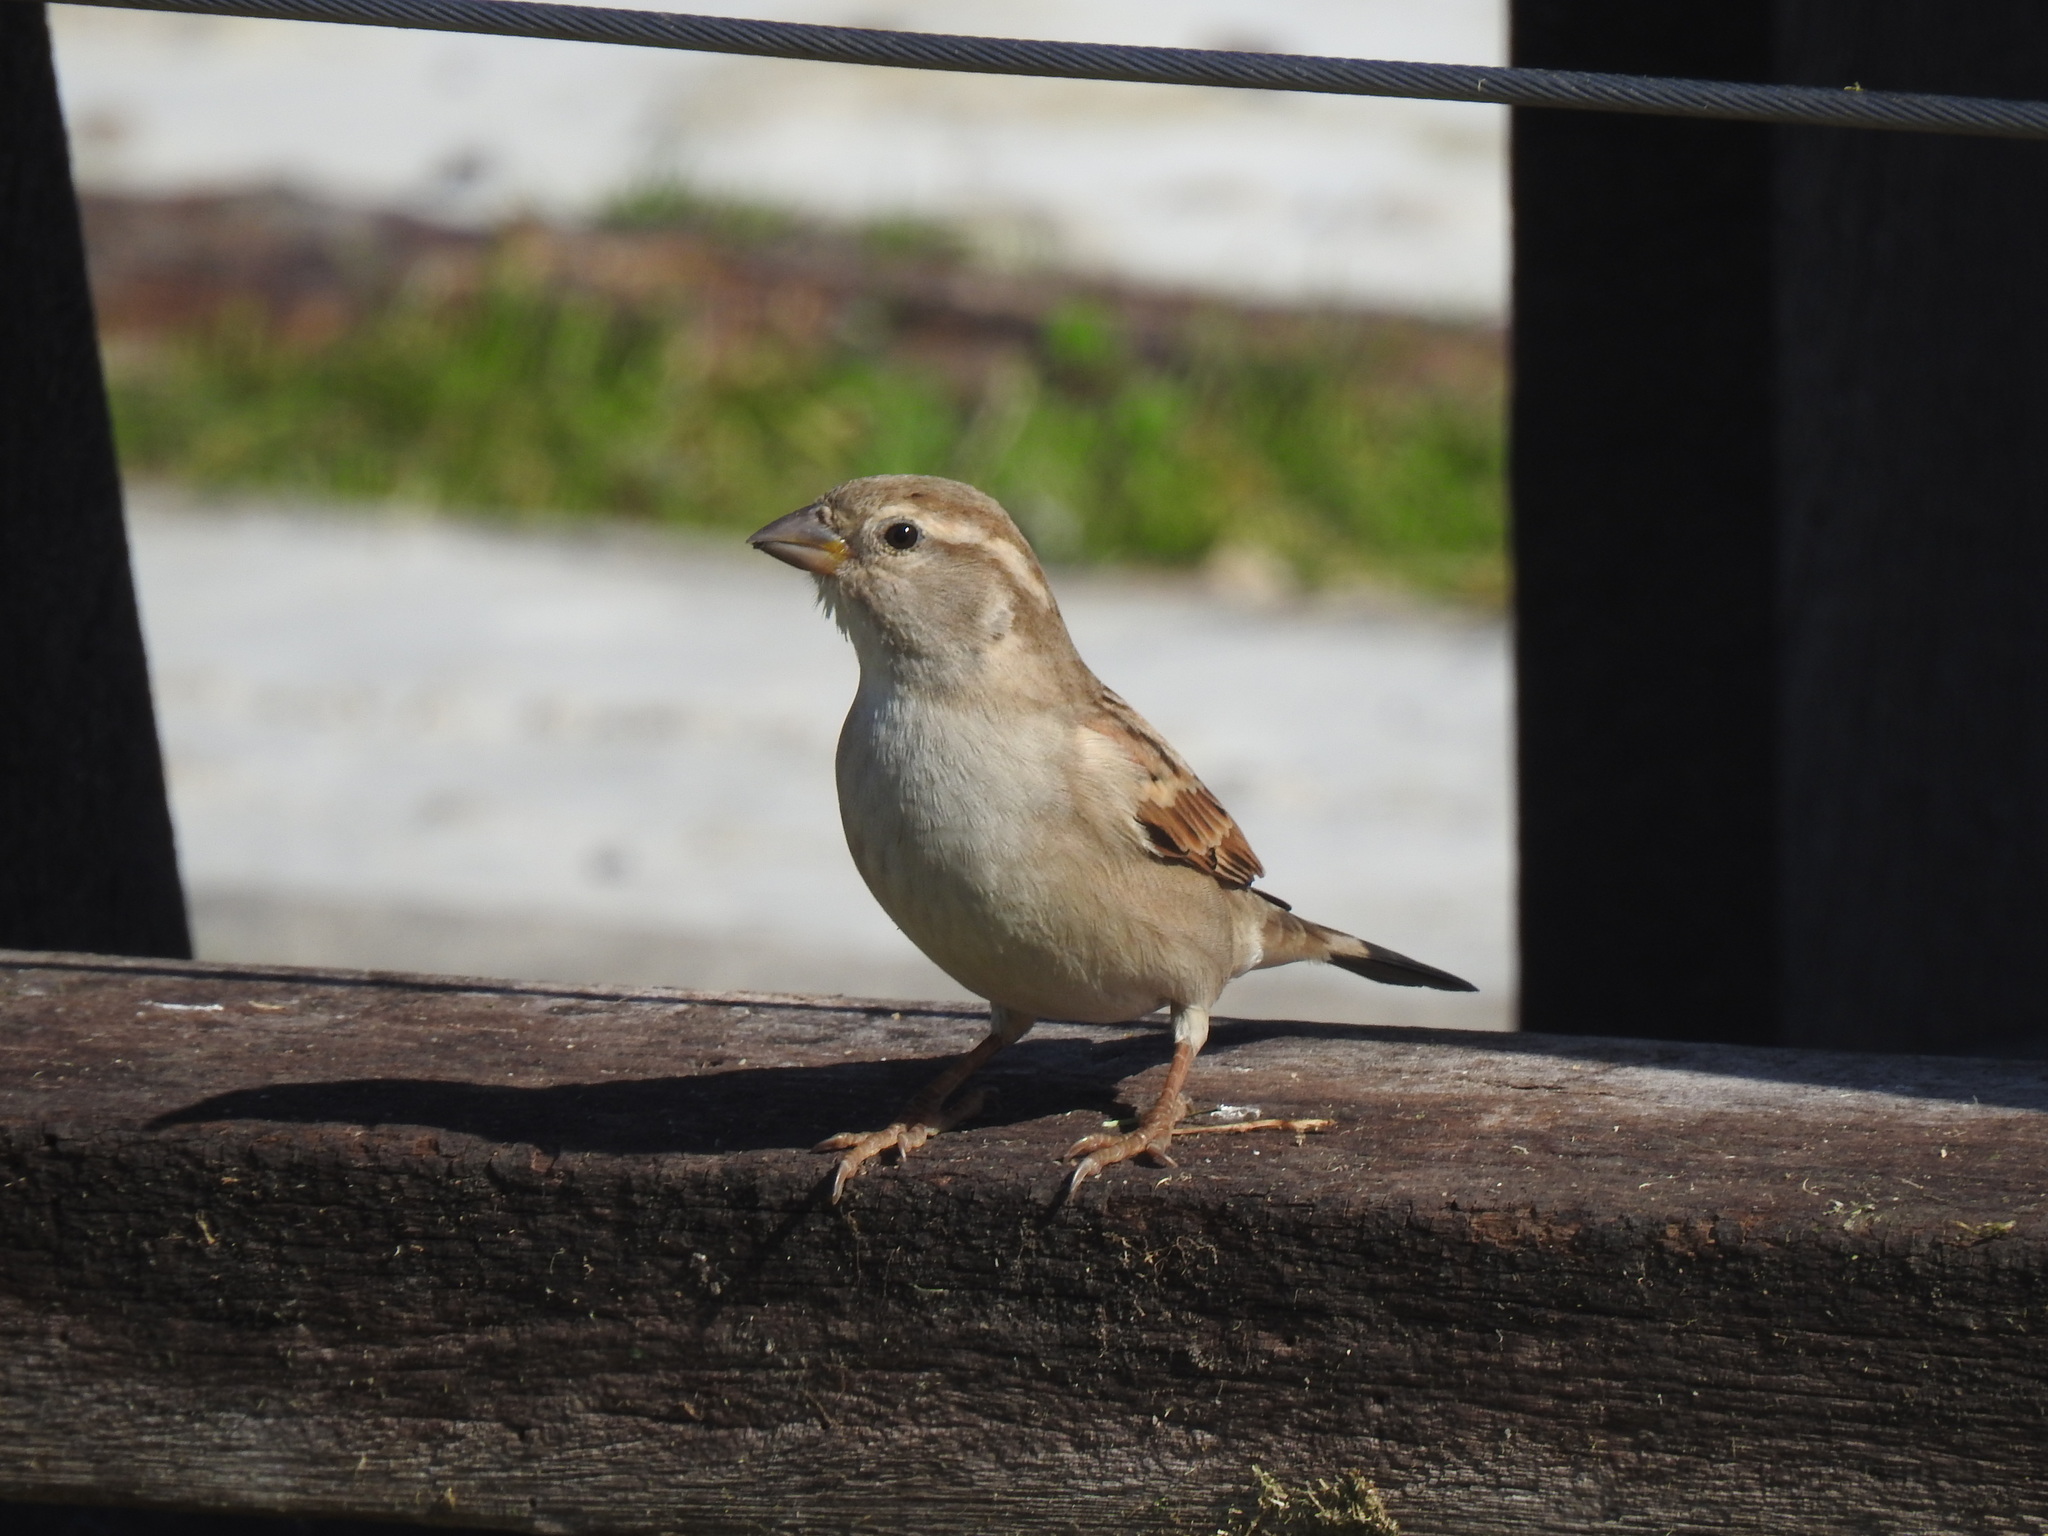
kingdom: Animalia
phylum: Chordata
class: Aves
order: Passeriformes
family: Passeridae
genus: Passer
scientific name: Passer domesticus
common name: House sparrow
